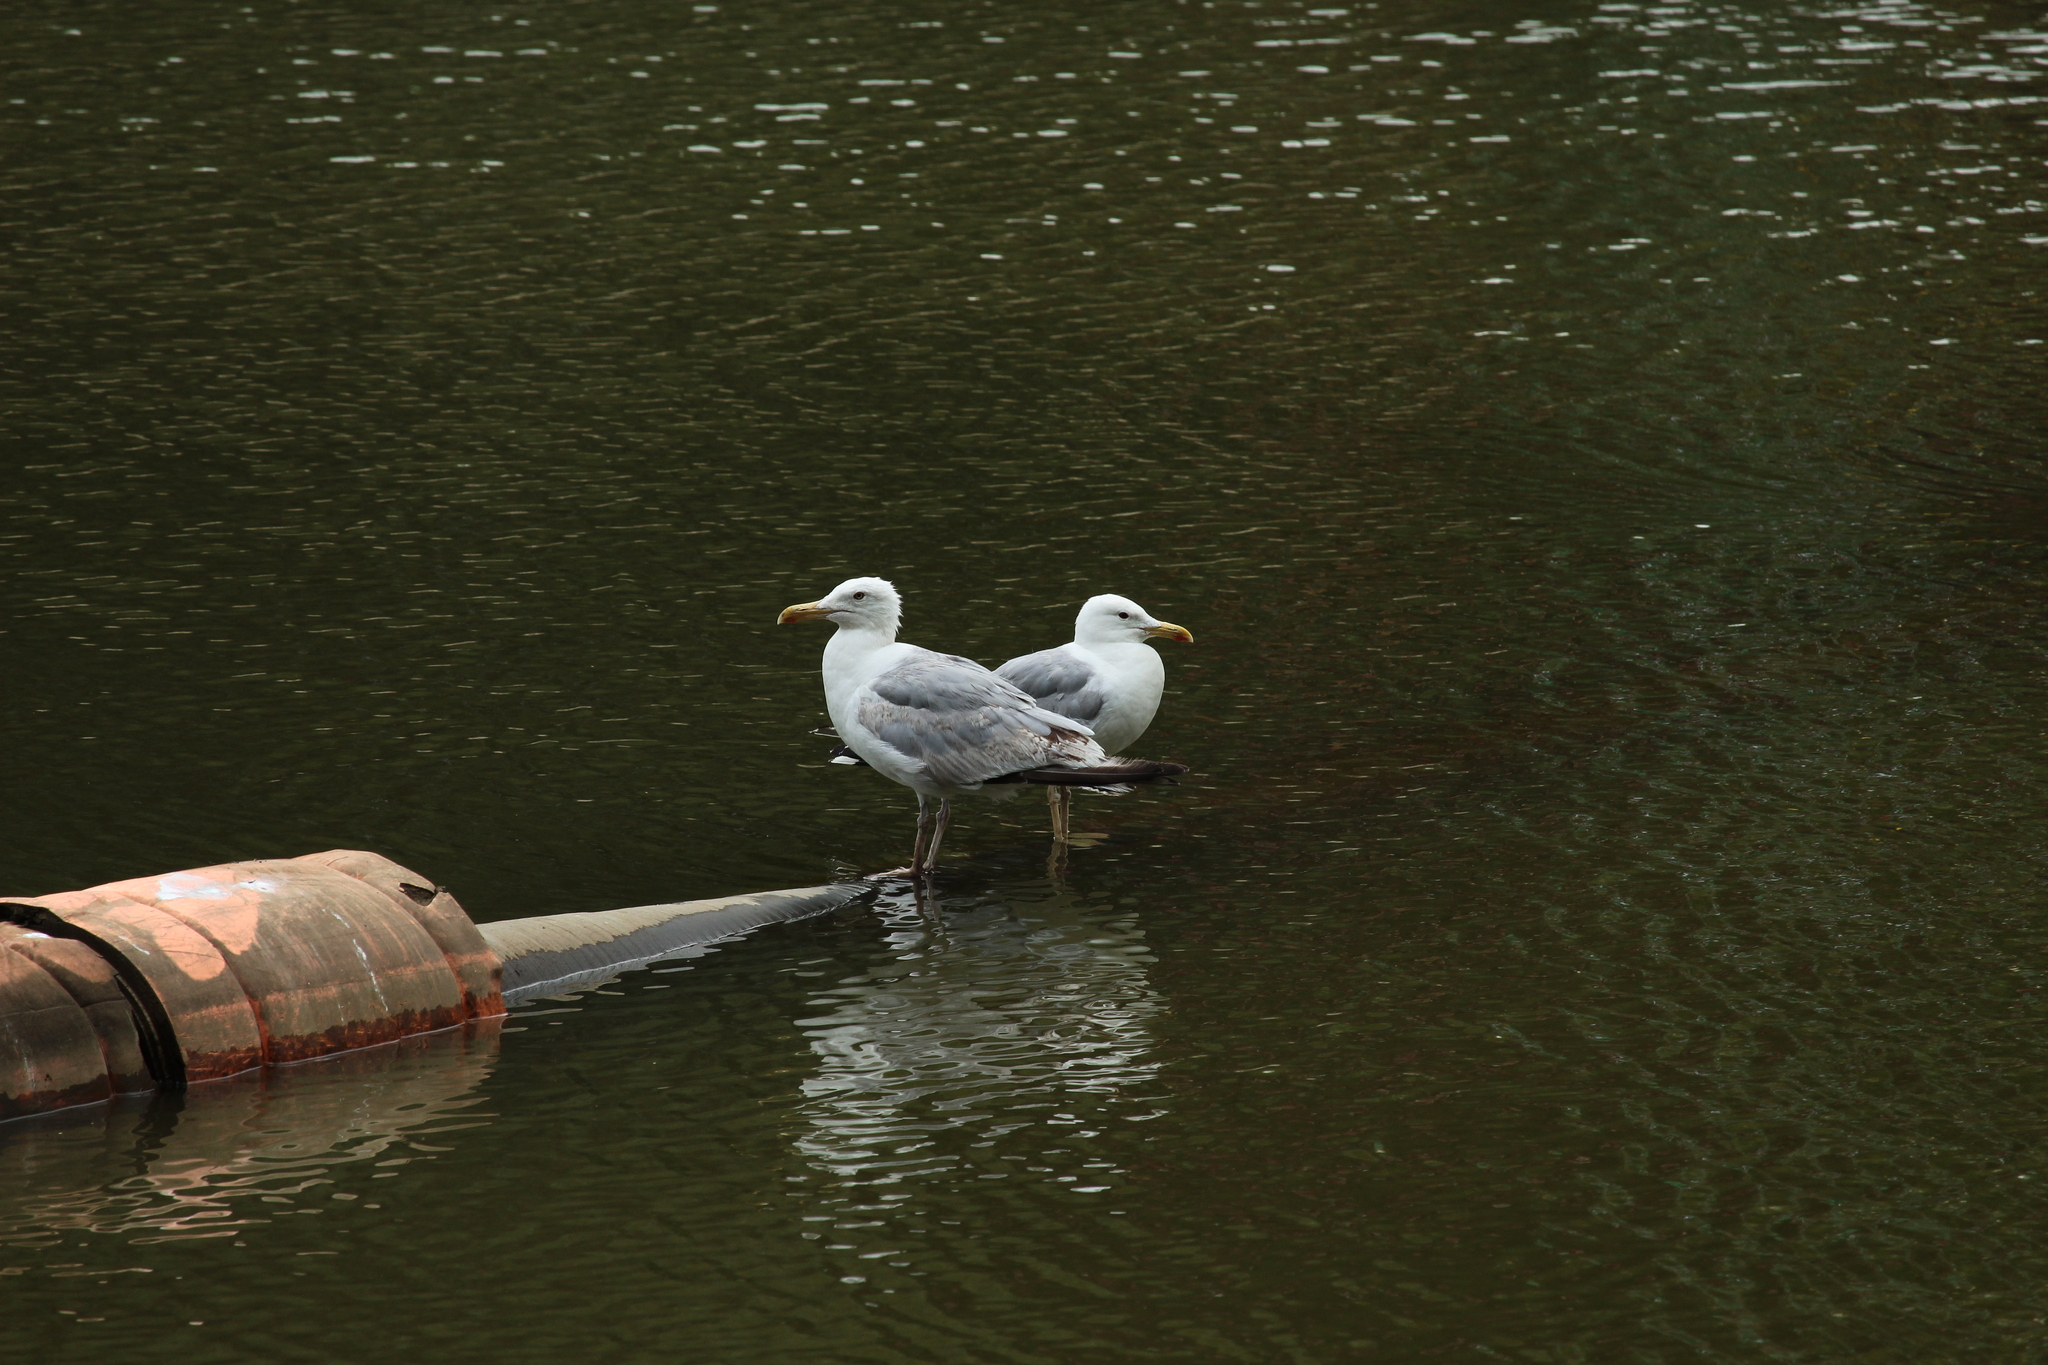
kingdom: Animalia
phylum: Chordata
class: Aves
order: Charadriiformes
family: Laridae
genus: Larus
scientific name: Larus cachinnans
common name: Caspian gull
